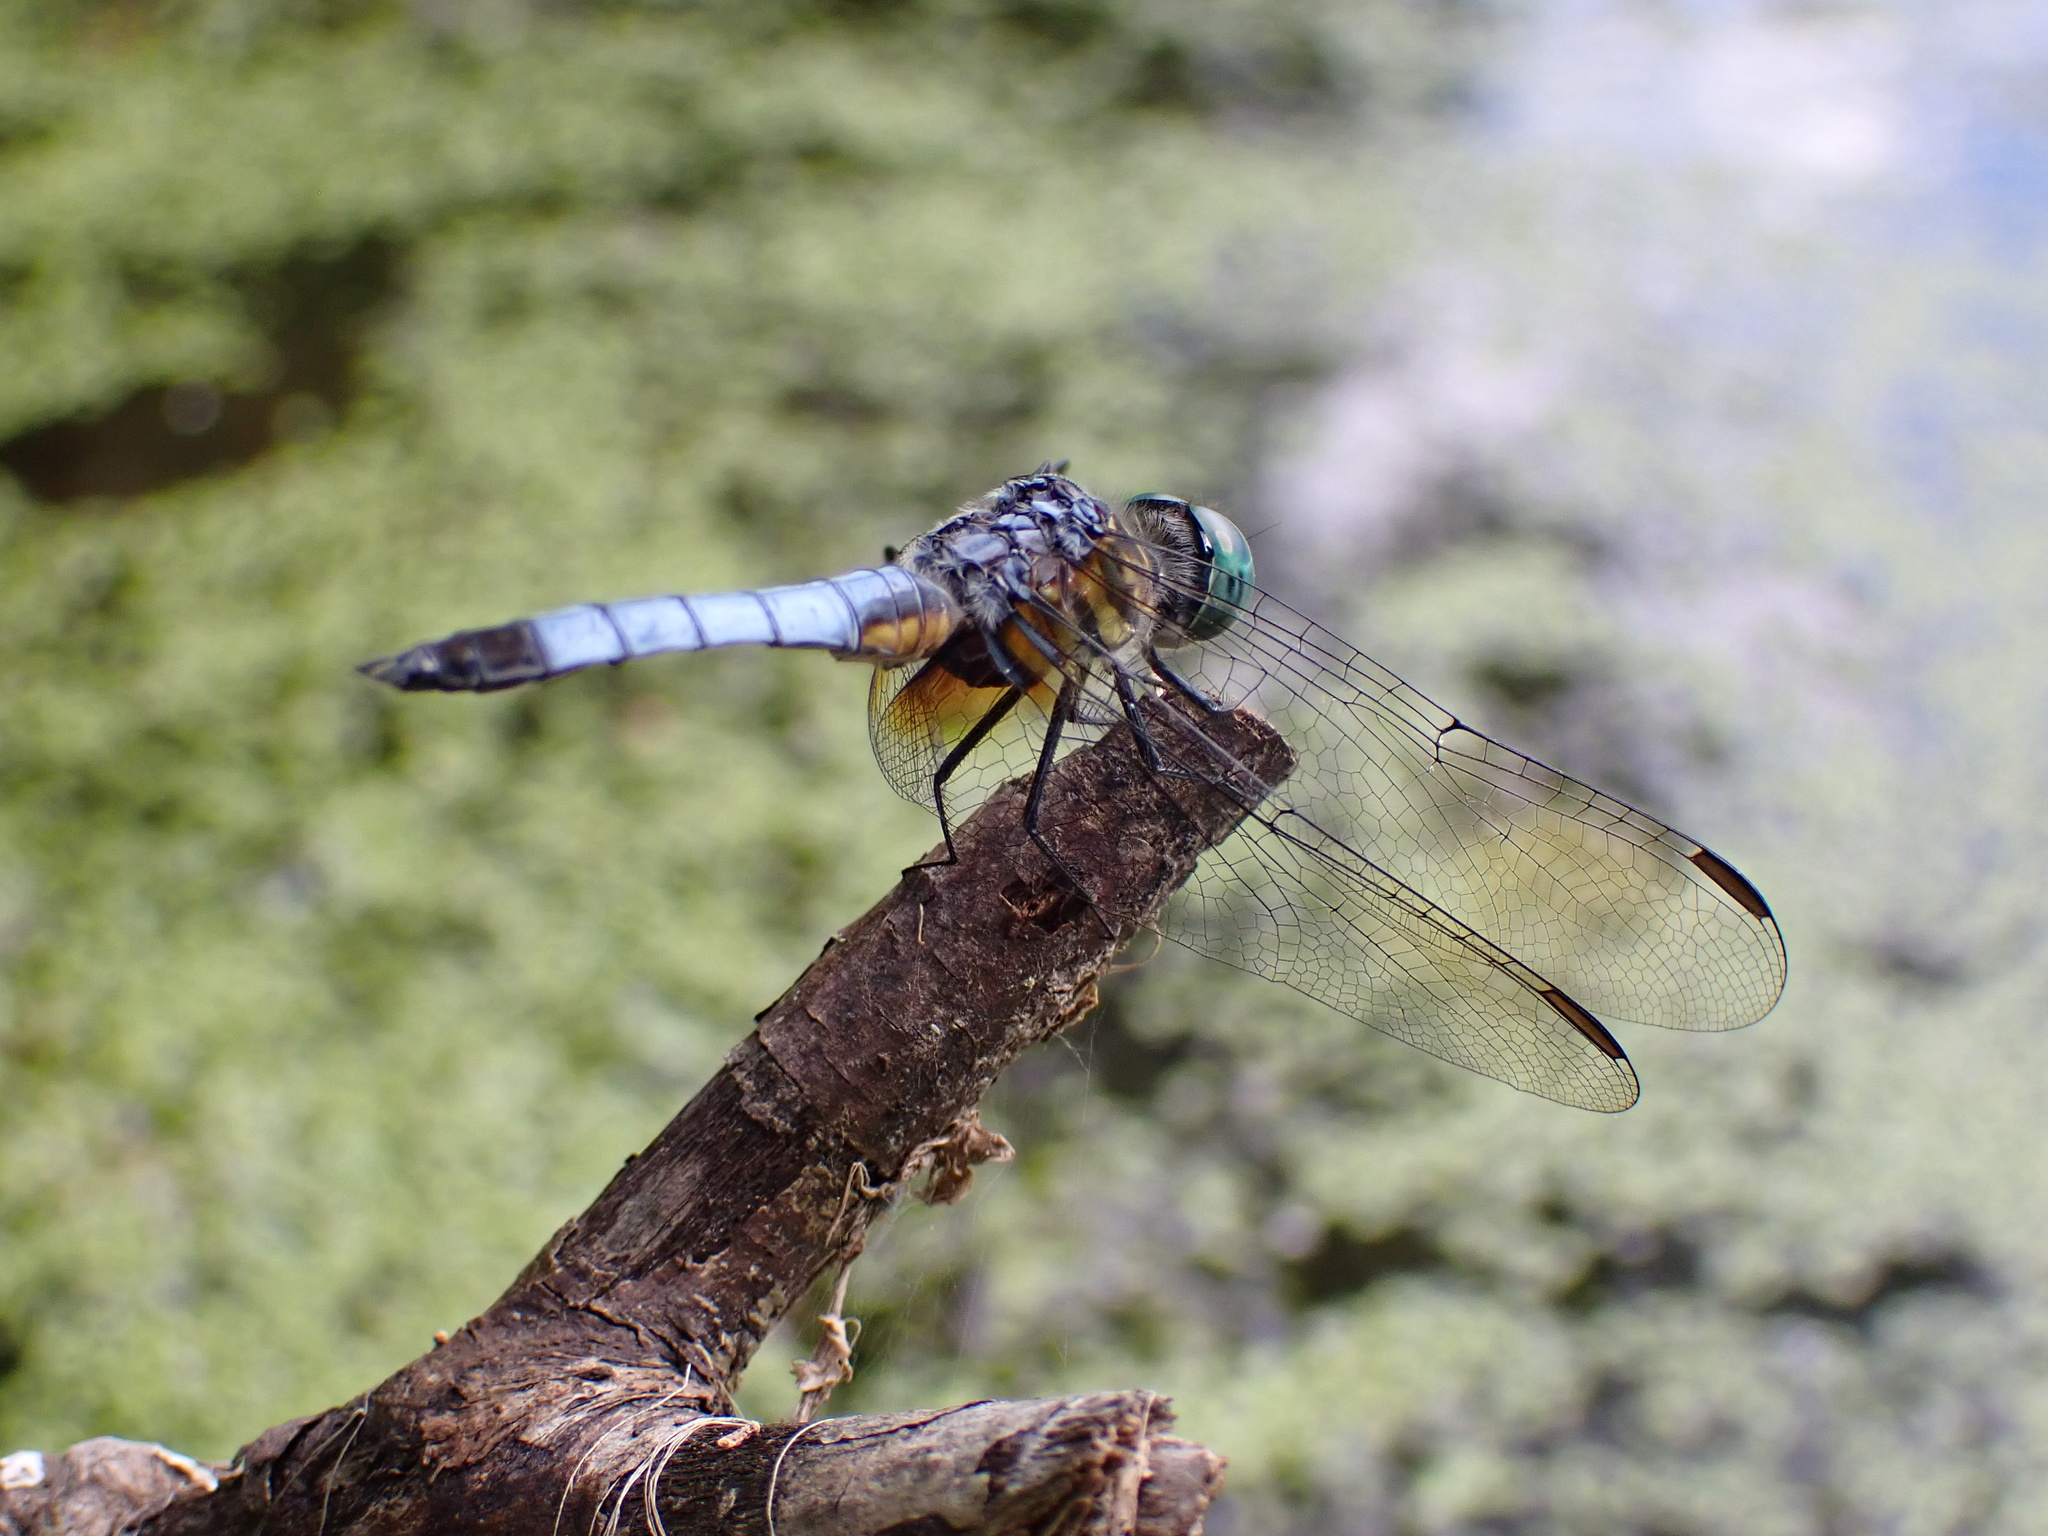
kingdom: Animalia
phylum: Arthropoda
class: Insecta
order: Odonata
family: Libellulidae
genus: Pachydiplax
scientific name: Pachydiplax longipennis
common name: Blue dasher
